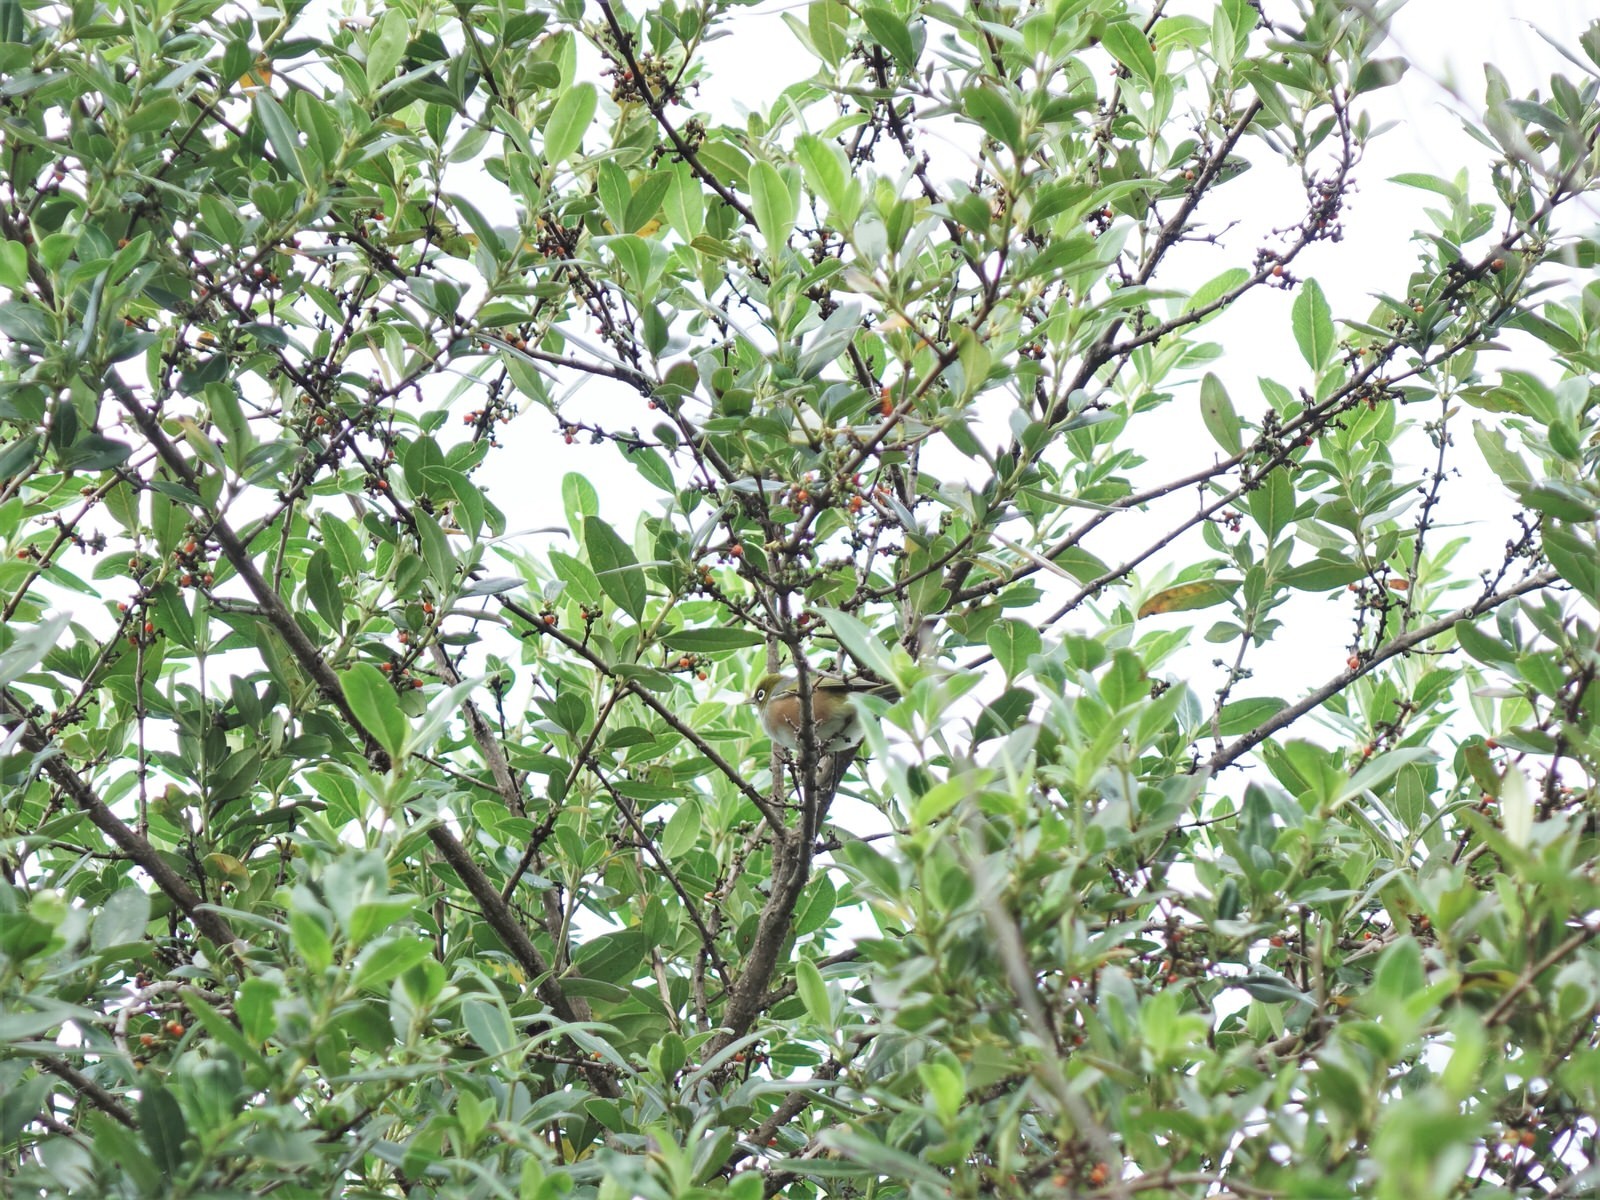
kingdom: Animalia
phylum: Chordata
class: Aves
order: Passeriformes
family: Zosteropidae
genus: Zosterops
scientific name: Zosterops lateralis
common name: Silvereye
